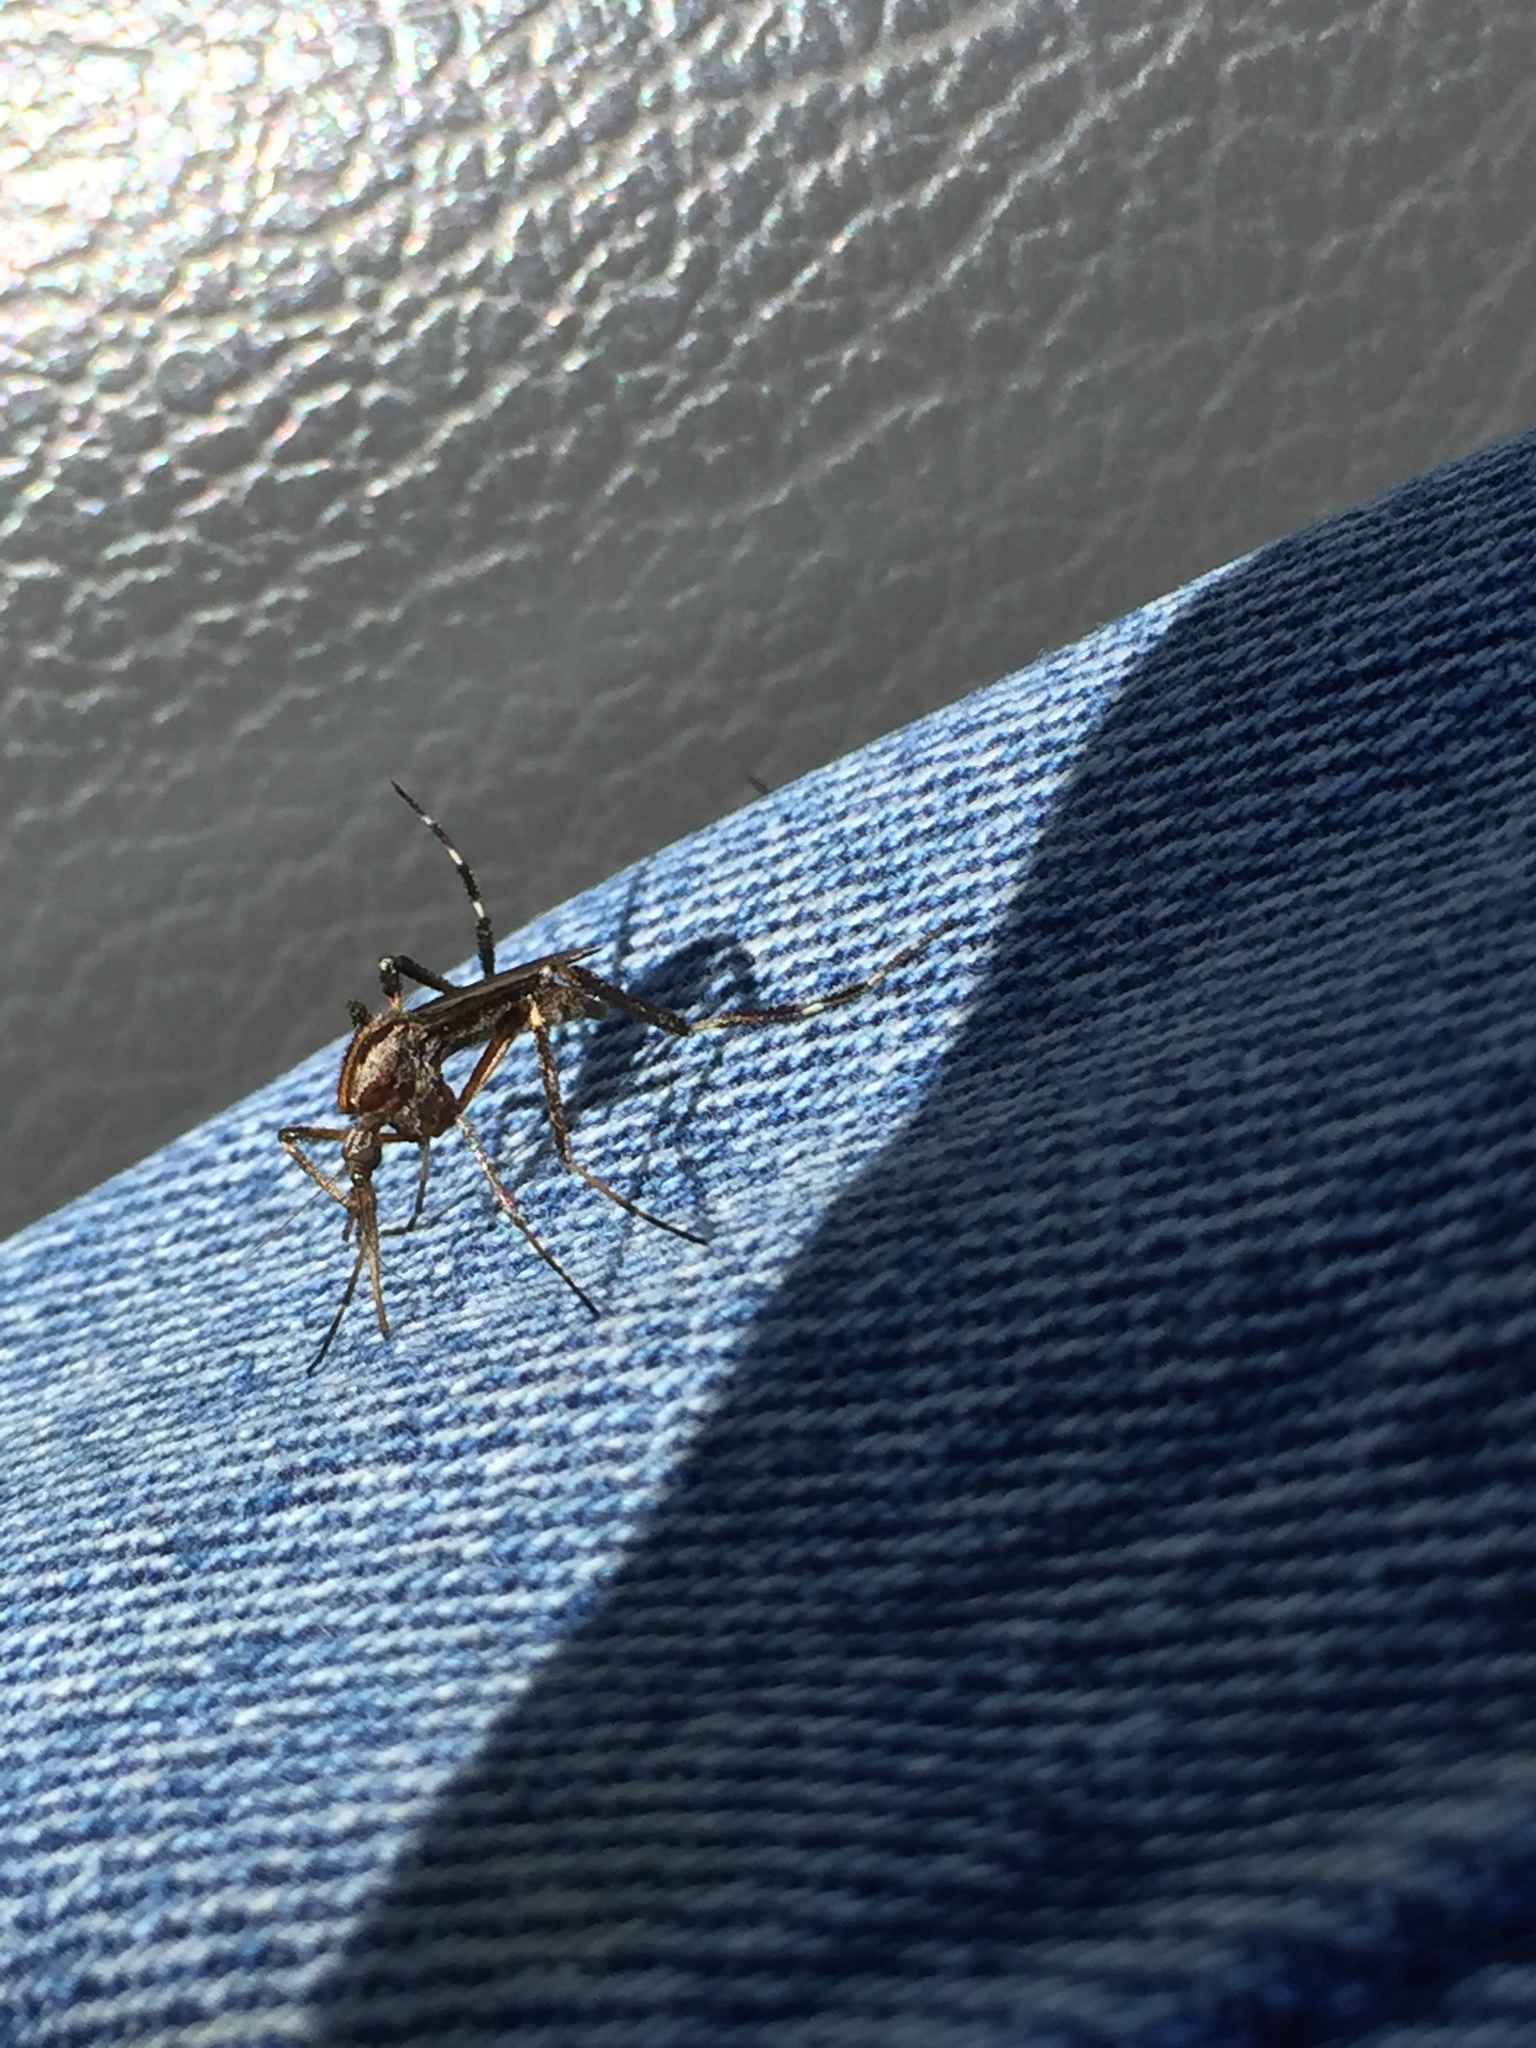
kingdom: Animalia
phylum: Arthropoda
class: Insecta
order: Diptera
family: Culicidae
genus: Psorophora
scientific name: Psorophora ciliata
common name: Gallinipper
